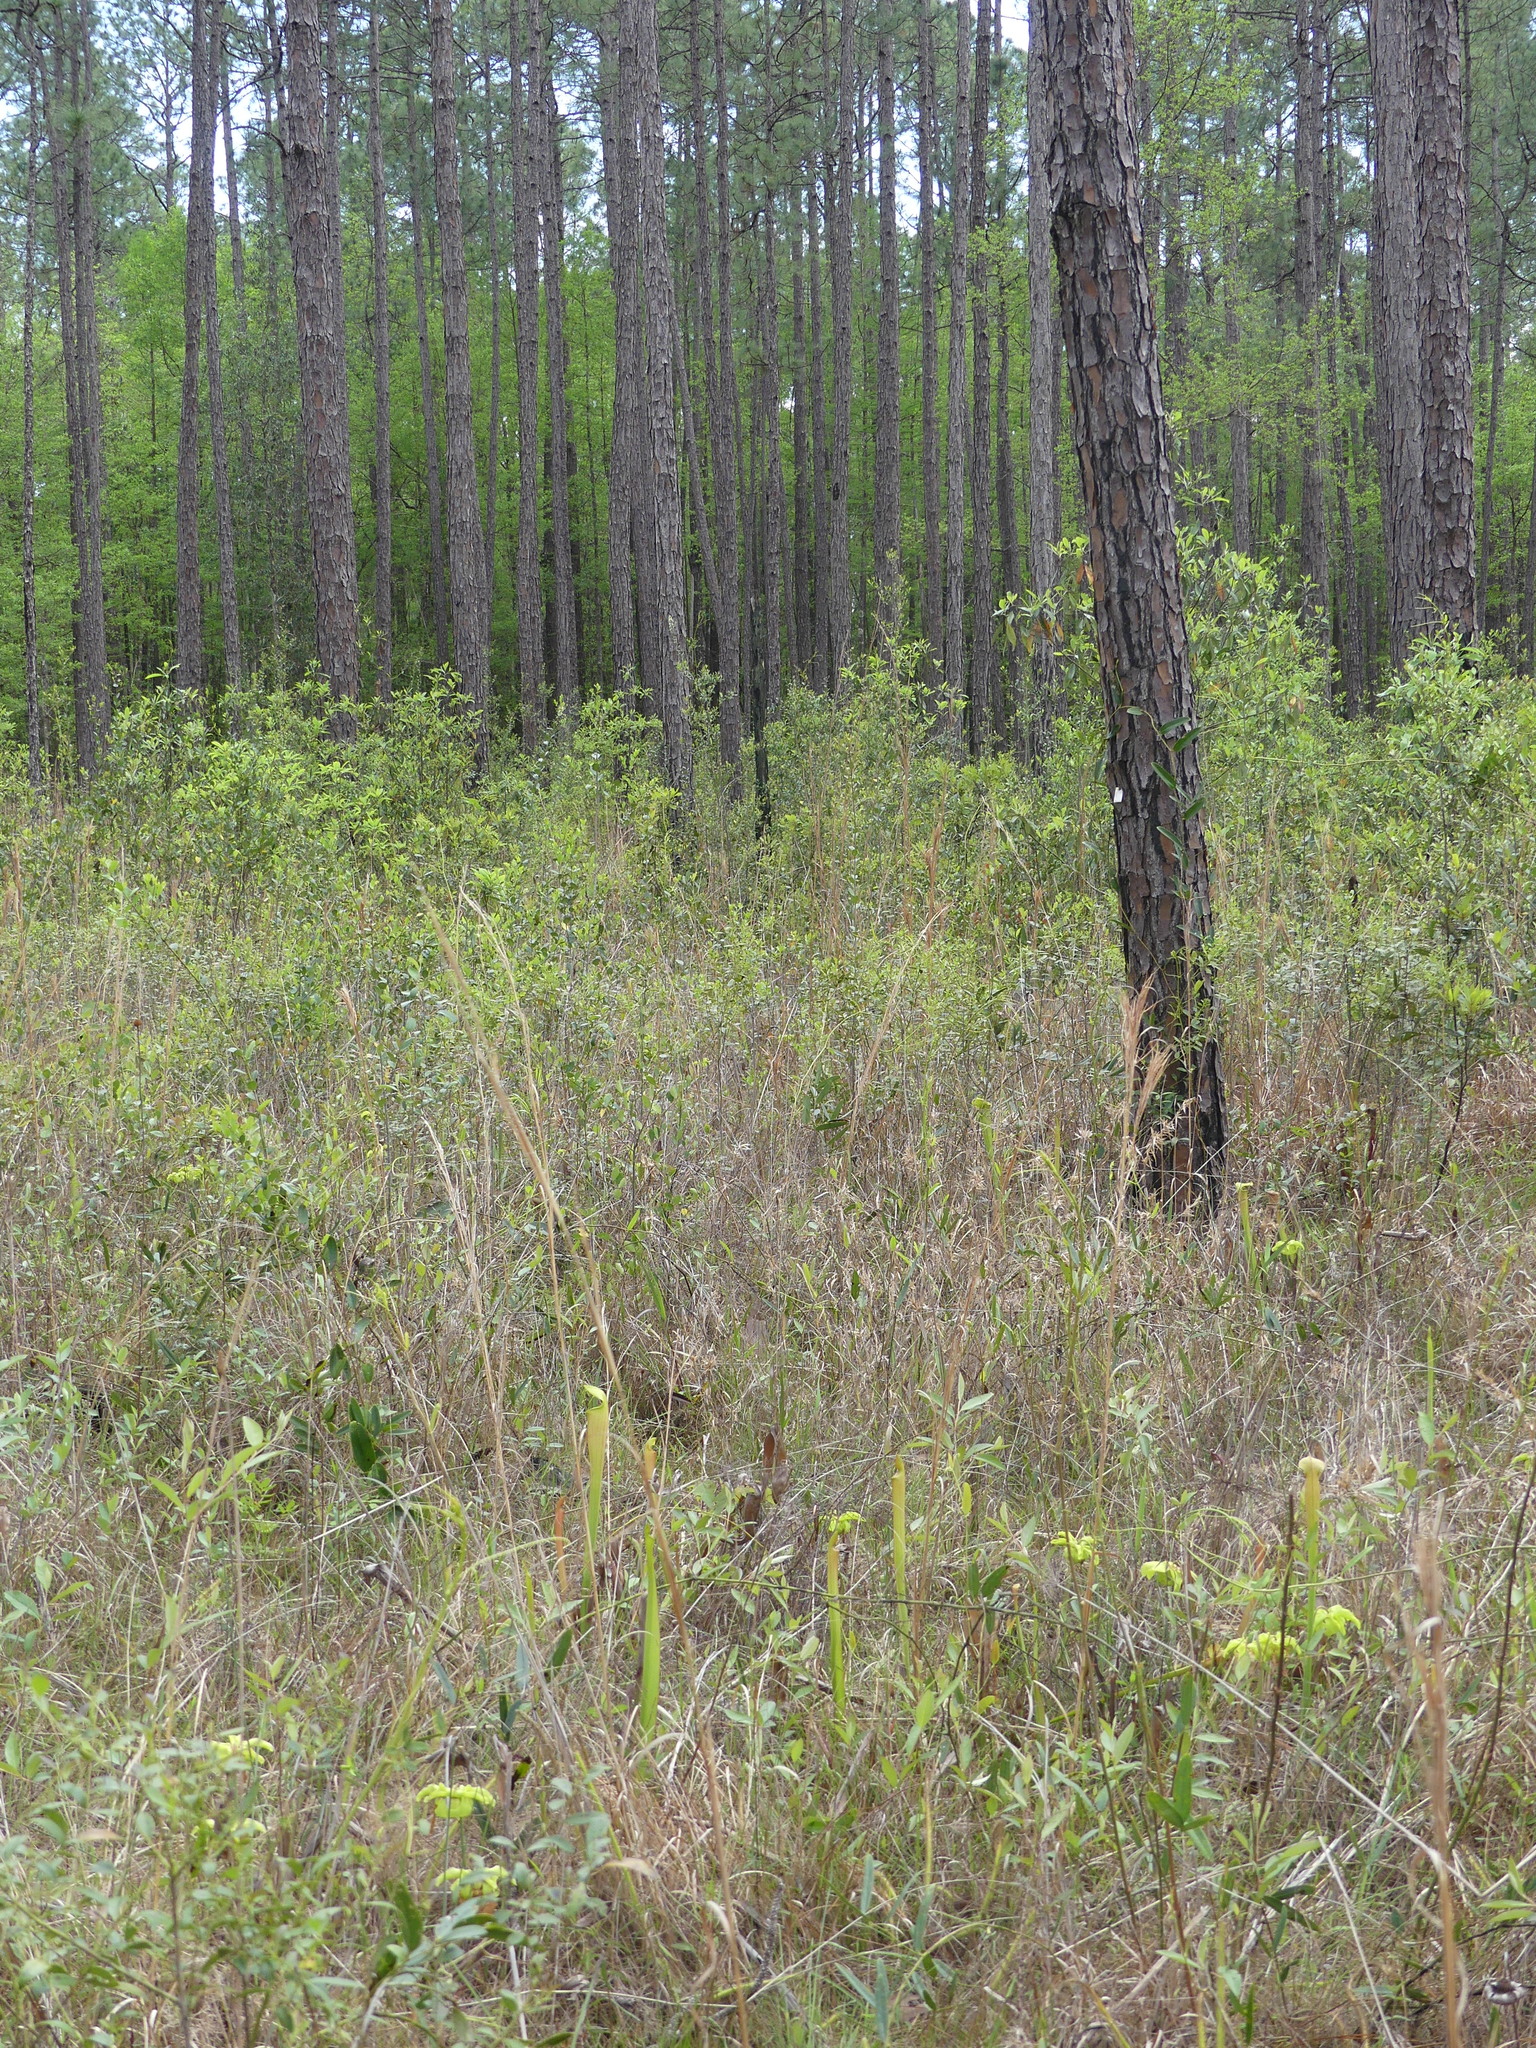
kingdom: Plantae
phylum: Tracheophyta
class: Magnoliopsida
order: Ericales
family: Sarraceniaceae
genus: Sarracenia
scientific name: Sarracenia alata
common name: Yellow trumpets
